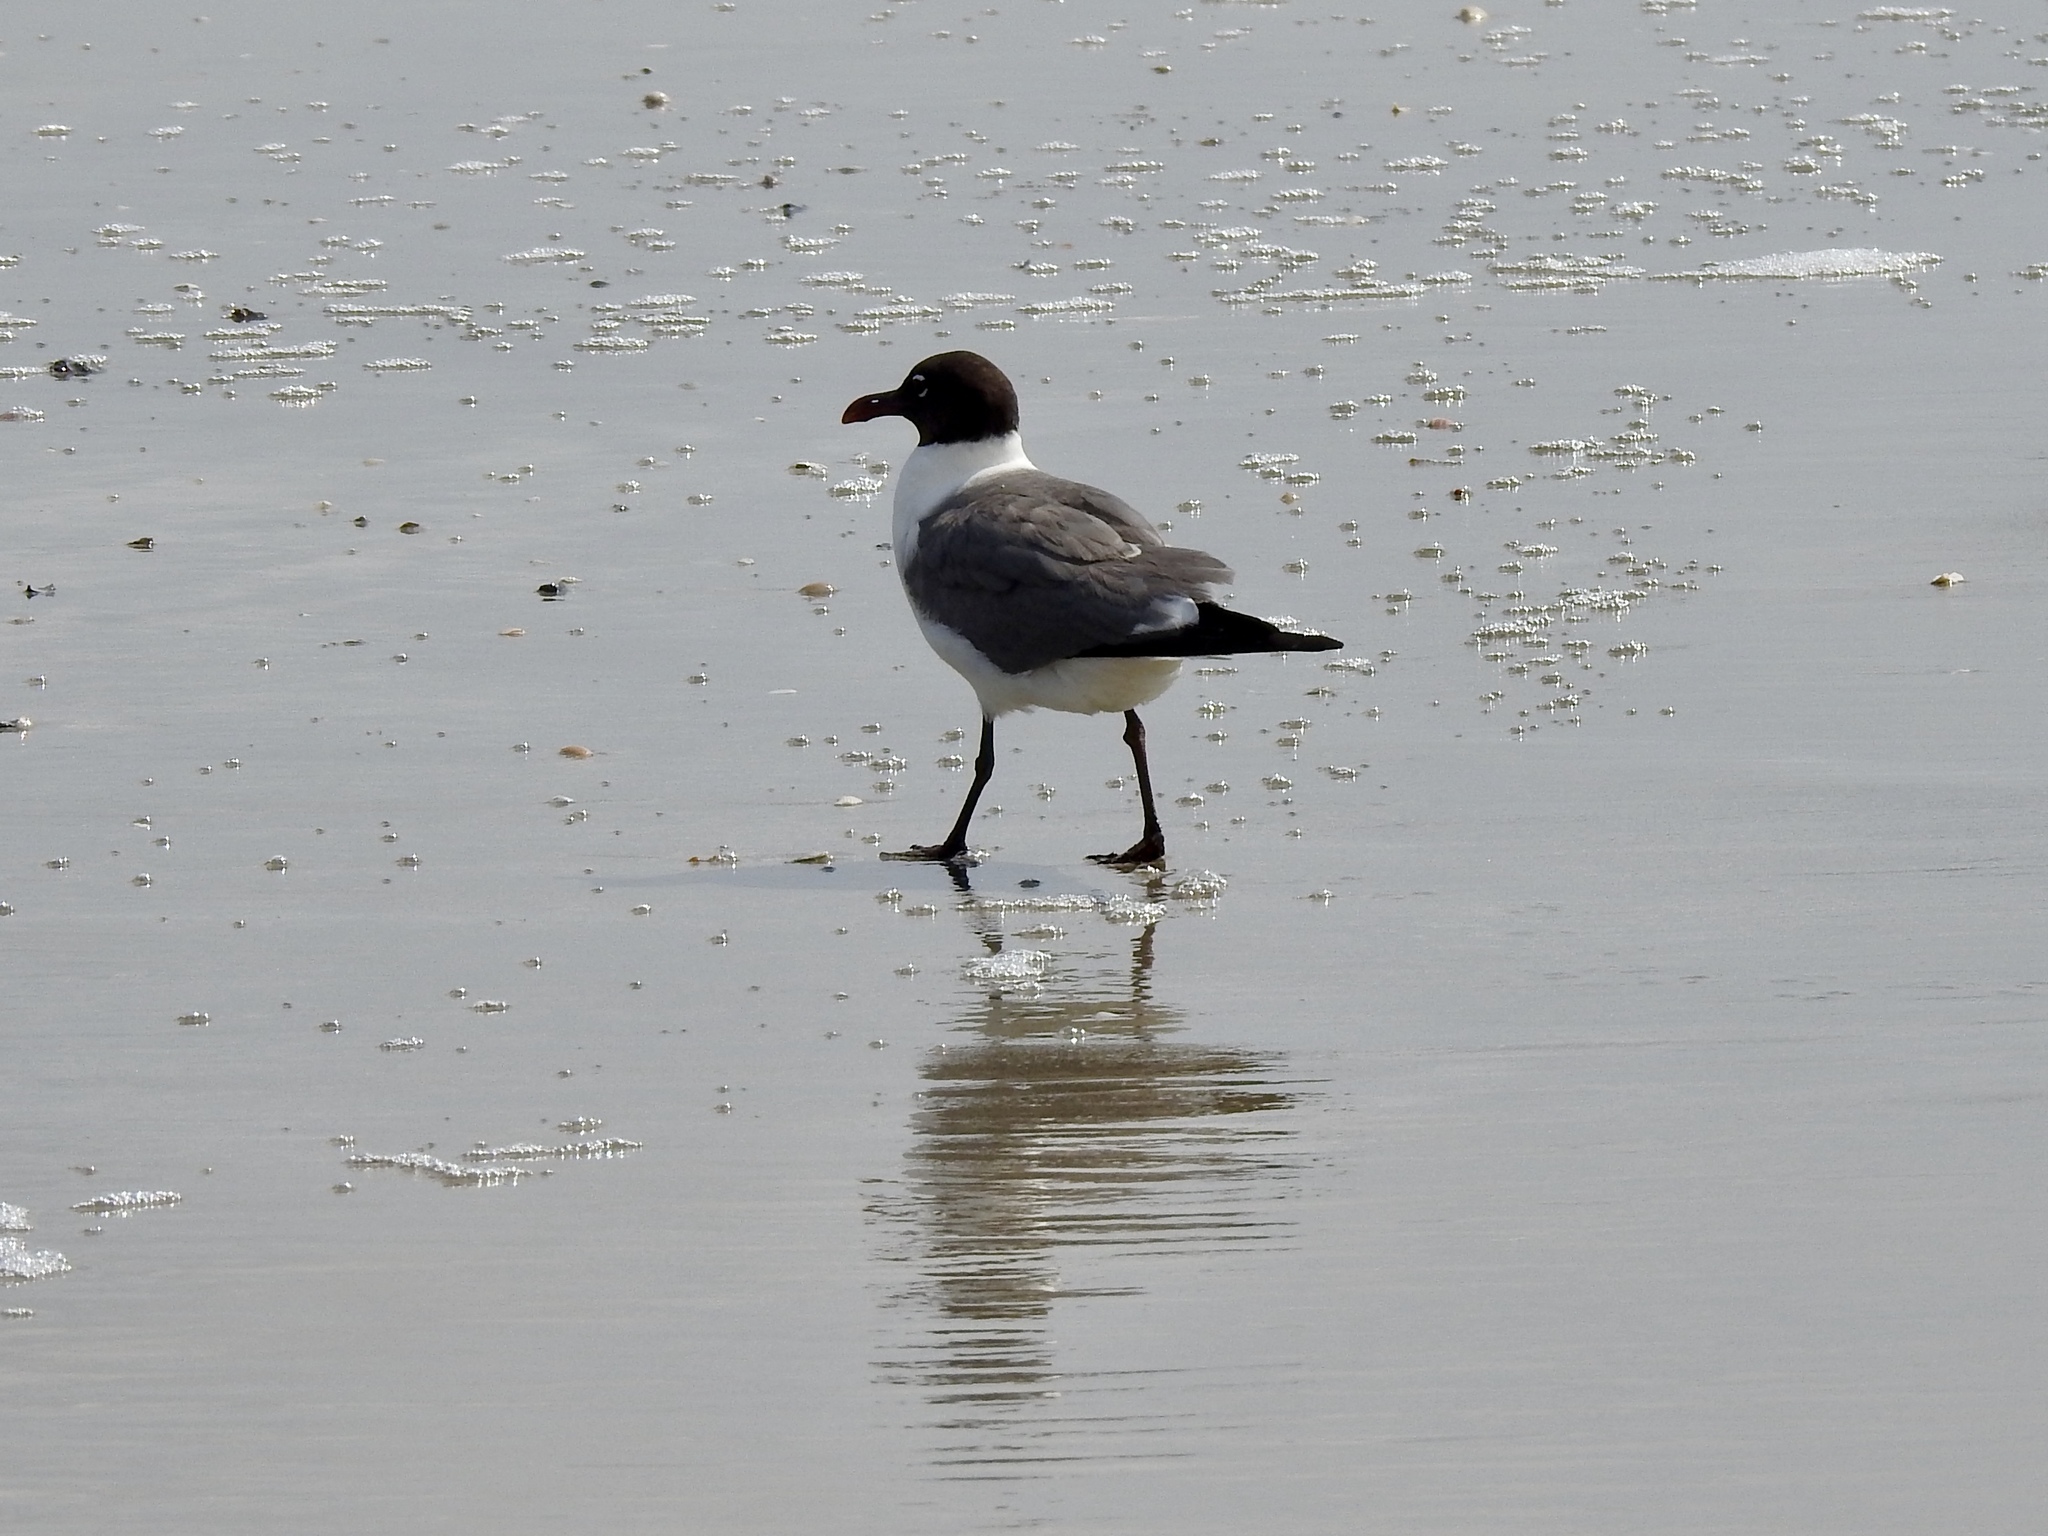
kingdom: Animalia
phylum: Chordata
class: Aves
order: Charadriiformes
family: Laridae
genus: Leucophaeus
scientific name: Leucophaeus atricilla
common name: Laughing gull
